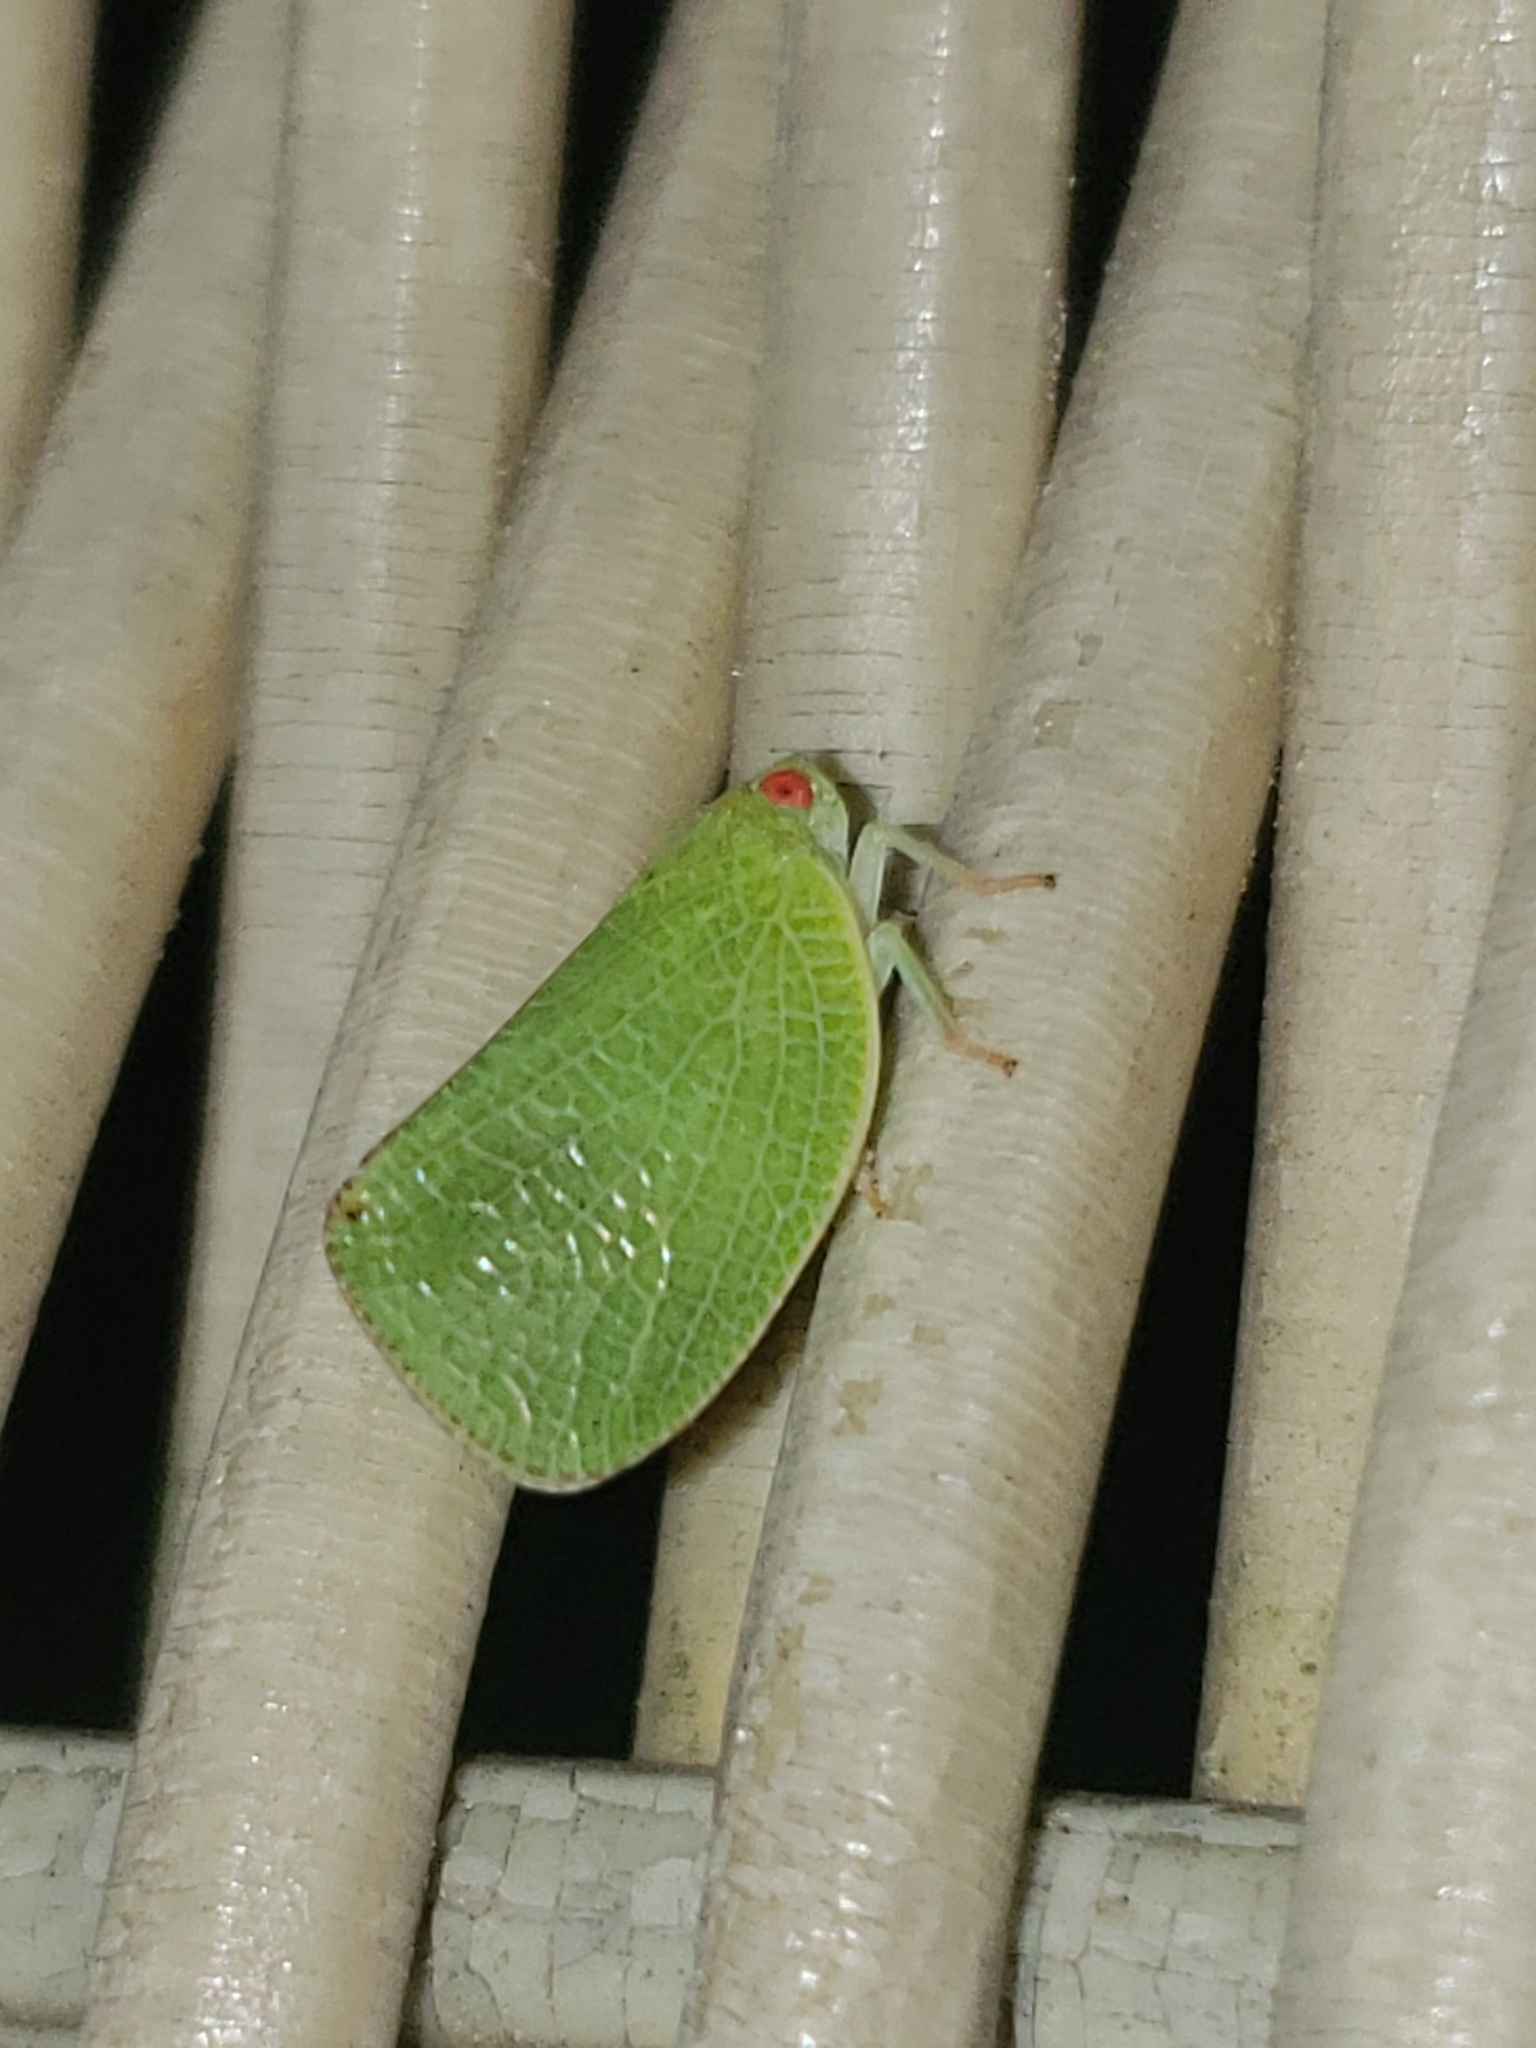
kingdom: Animalia
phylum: Arthropoda
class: Insecta
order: Hemiptera
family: Acanaloniidae
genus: Acanalonia
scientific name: Acanalonia conica
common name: Green cone-headed planthopper
